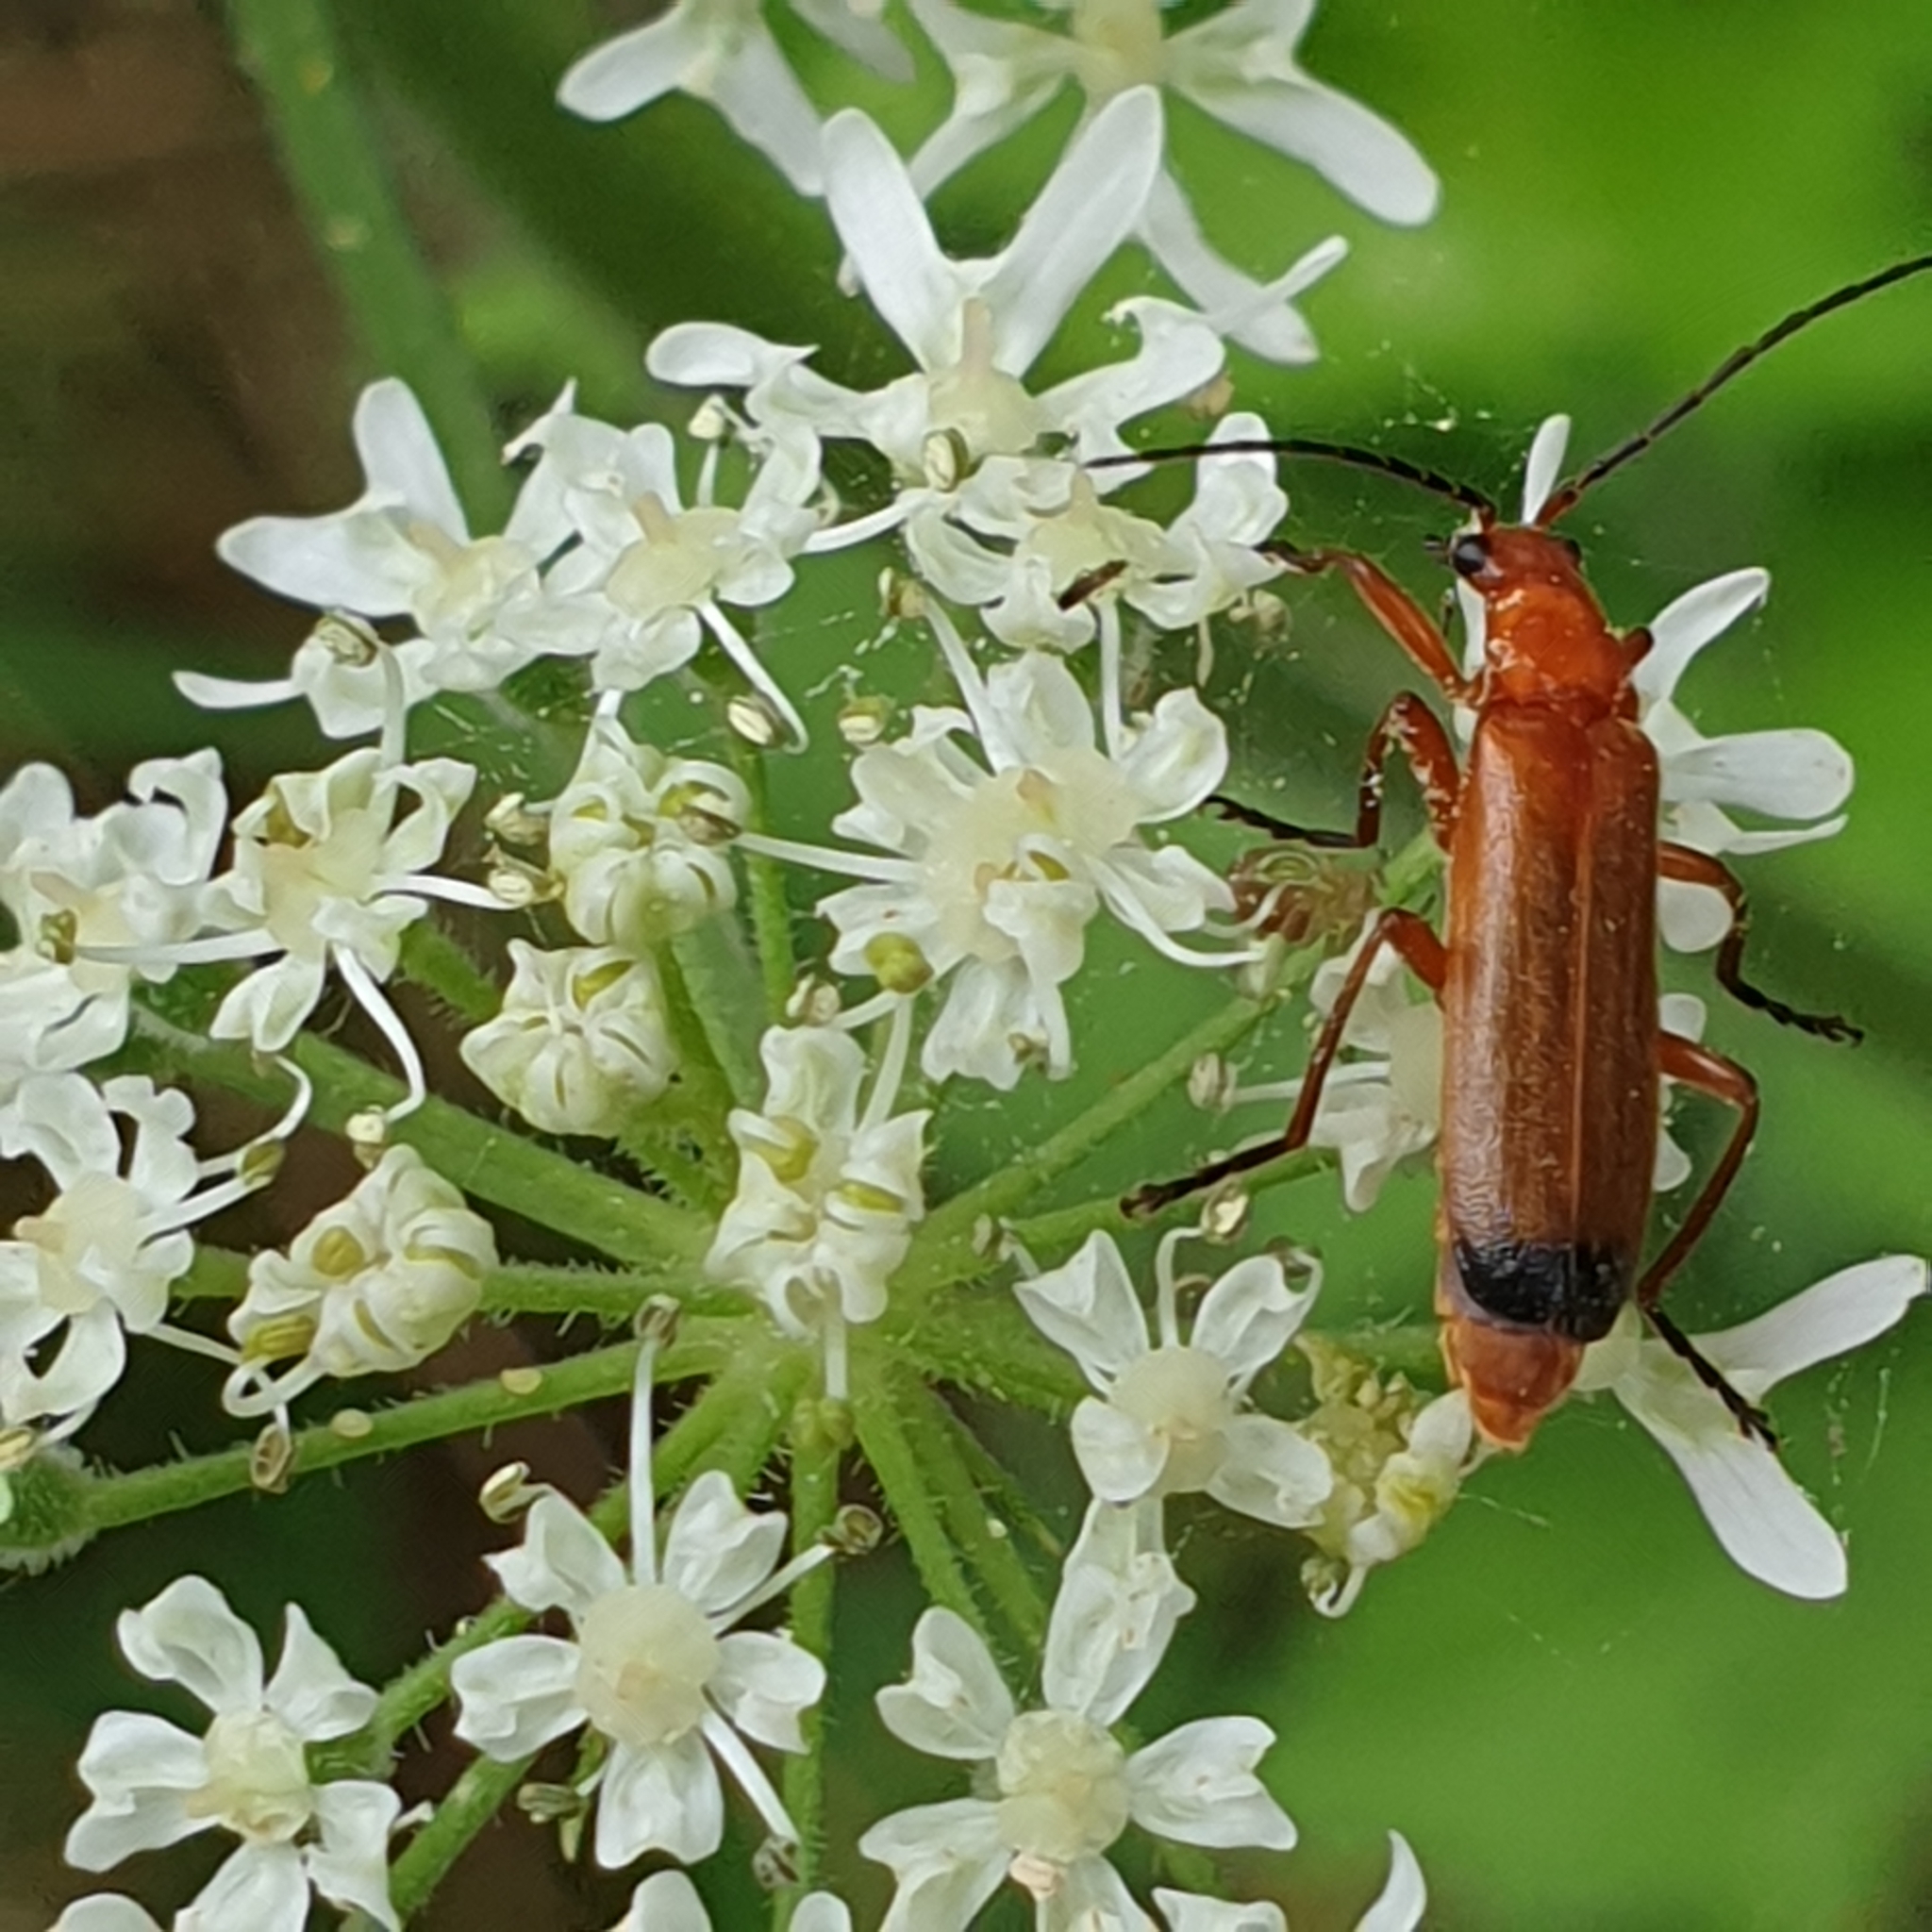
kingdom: Animalia
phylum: Arthropoda
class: Insecta
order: Coleoptera
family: Cantharidae
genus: Rhagonycha
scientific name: Rhagonycha fulva
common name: Common red soldier beetle
